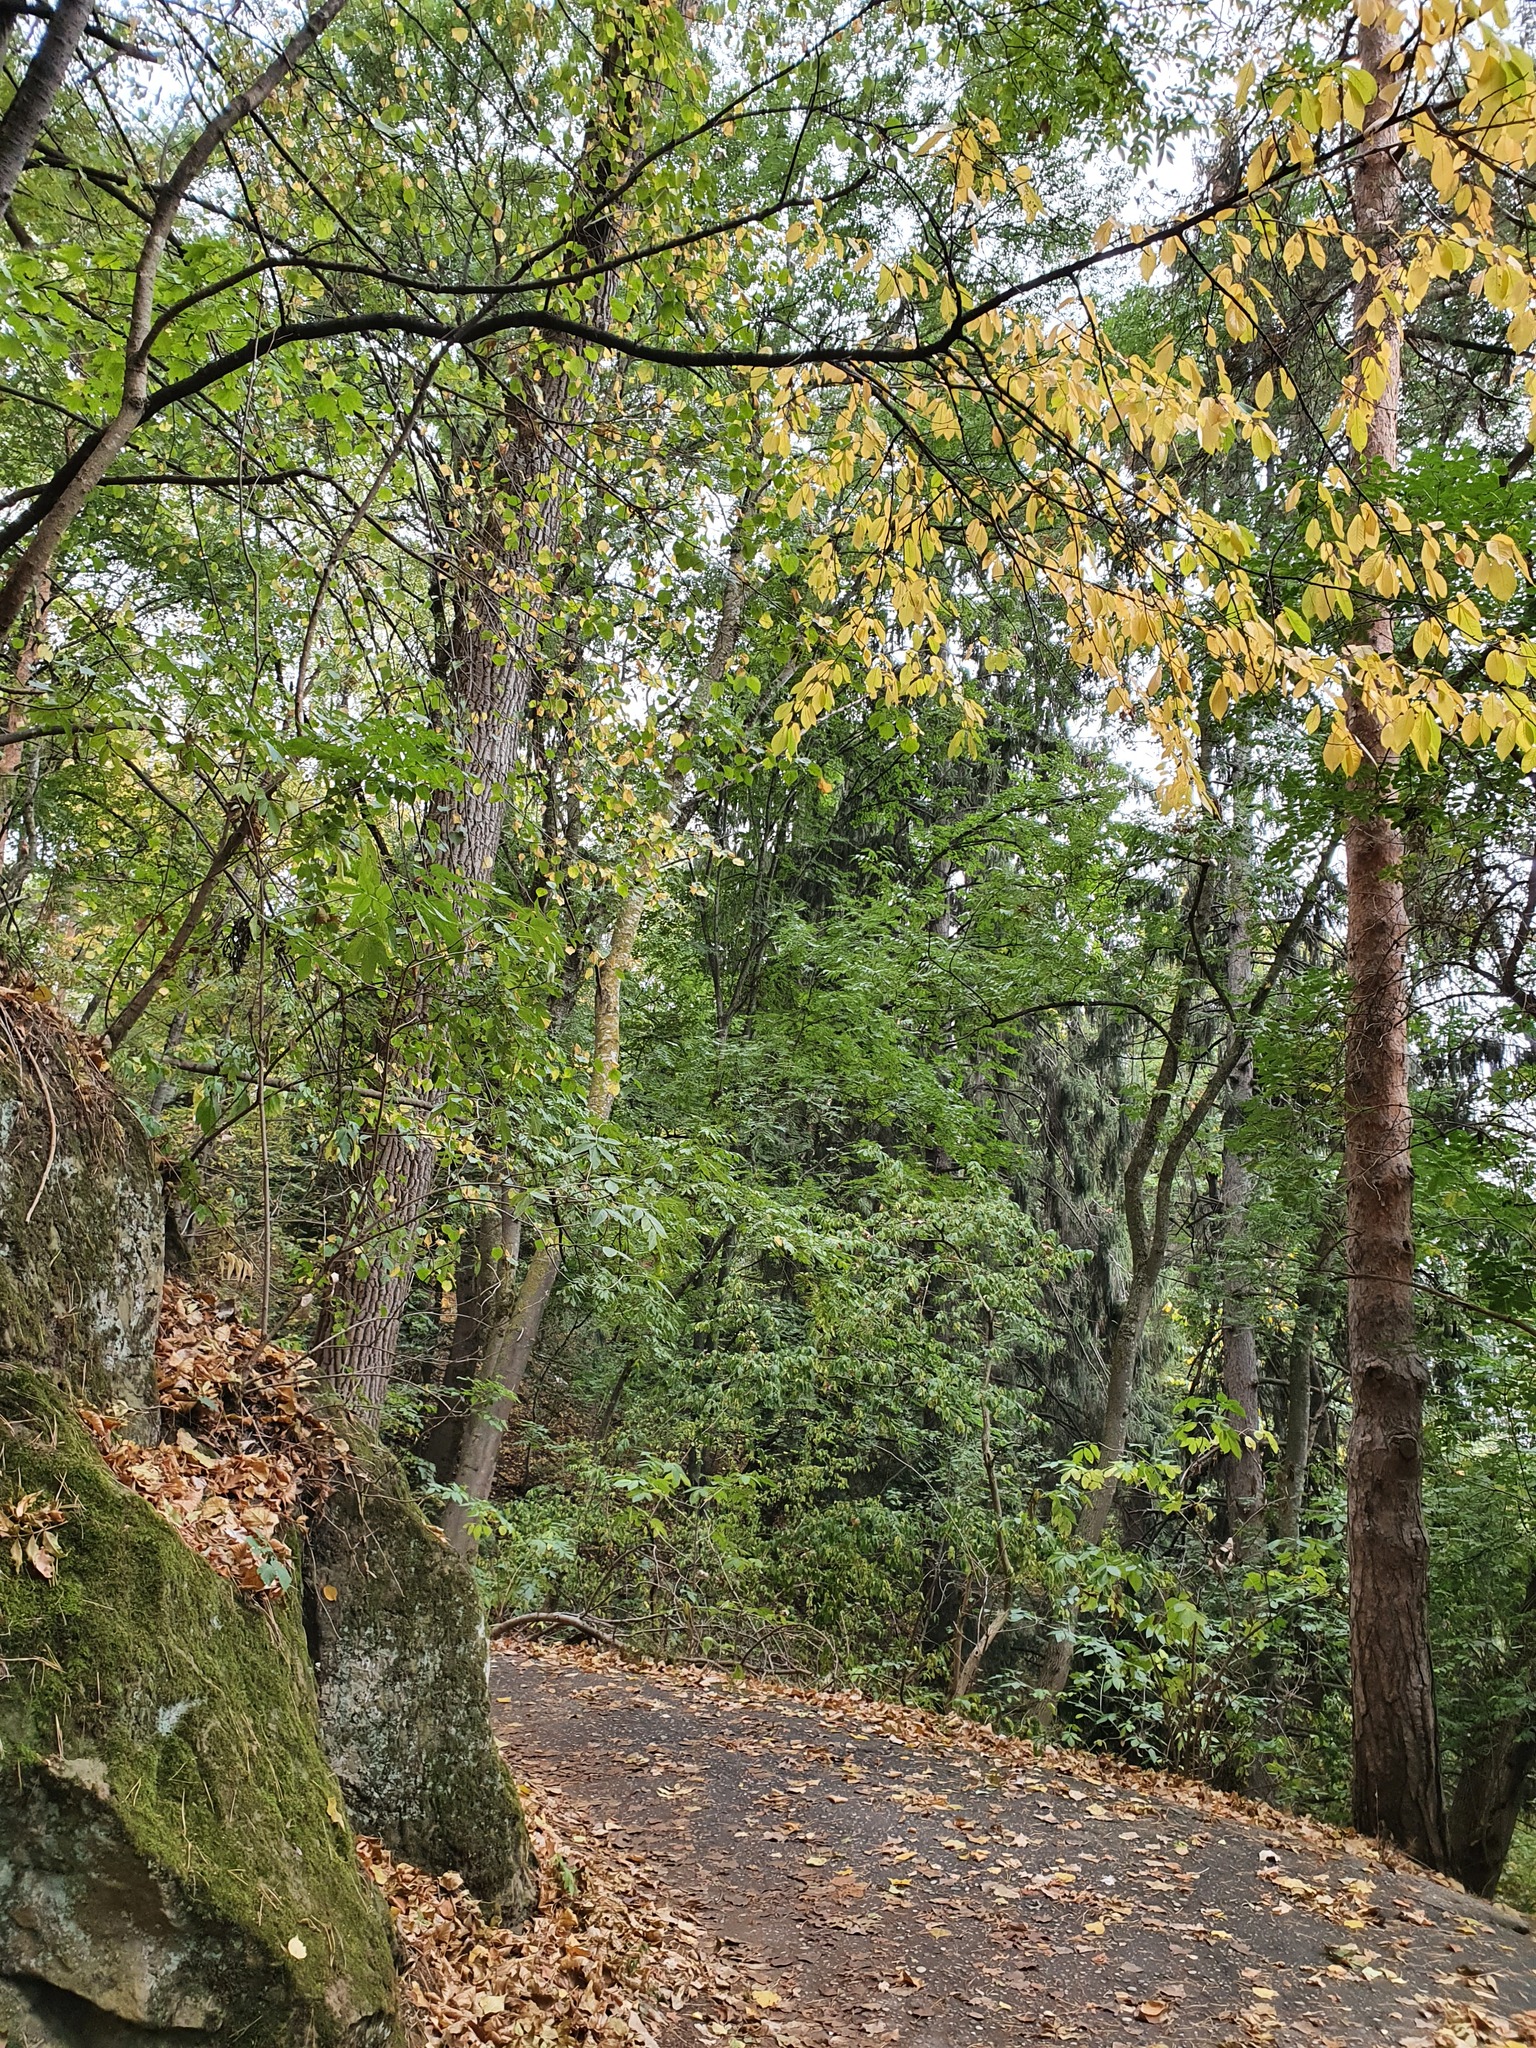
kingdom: Plantae
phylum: Tracheophyta
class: Magnoliopsida
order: Fagales
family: Fagaceae
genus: Fagus
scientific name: Fagus orientalis
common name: Oriental beech
